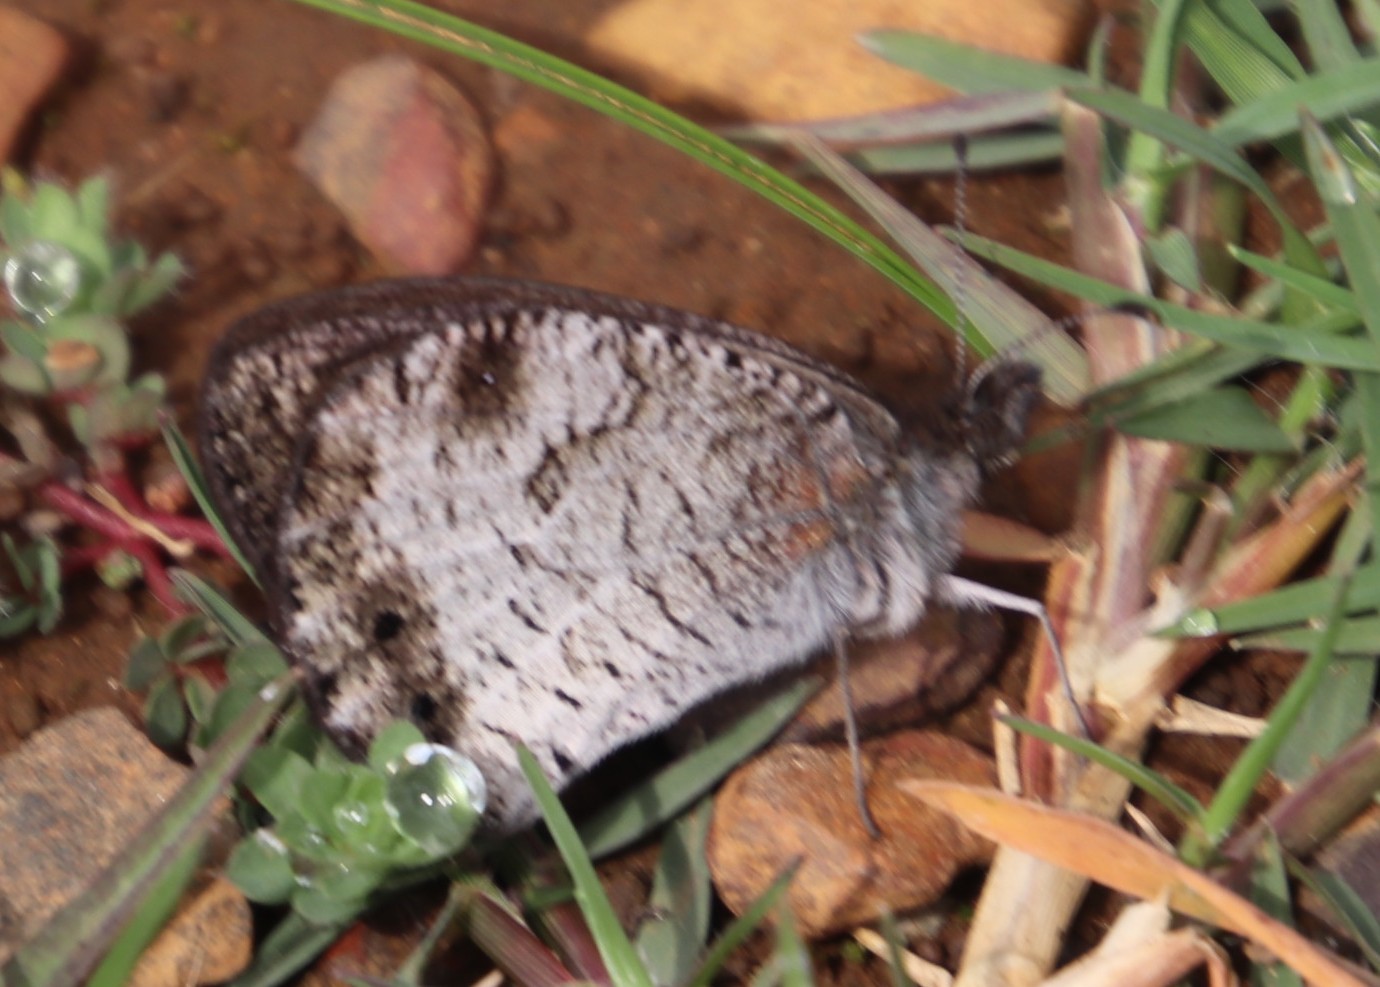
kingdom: Animalia
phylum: Arthropoda
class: Insecta
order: Lepidoptera
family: Nymphalidae
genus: Pseudonympha
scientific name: Pseudonympha magus
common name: Silver-bottom brown
